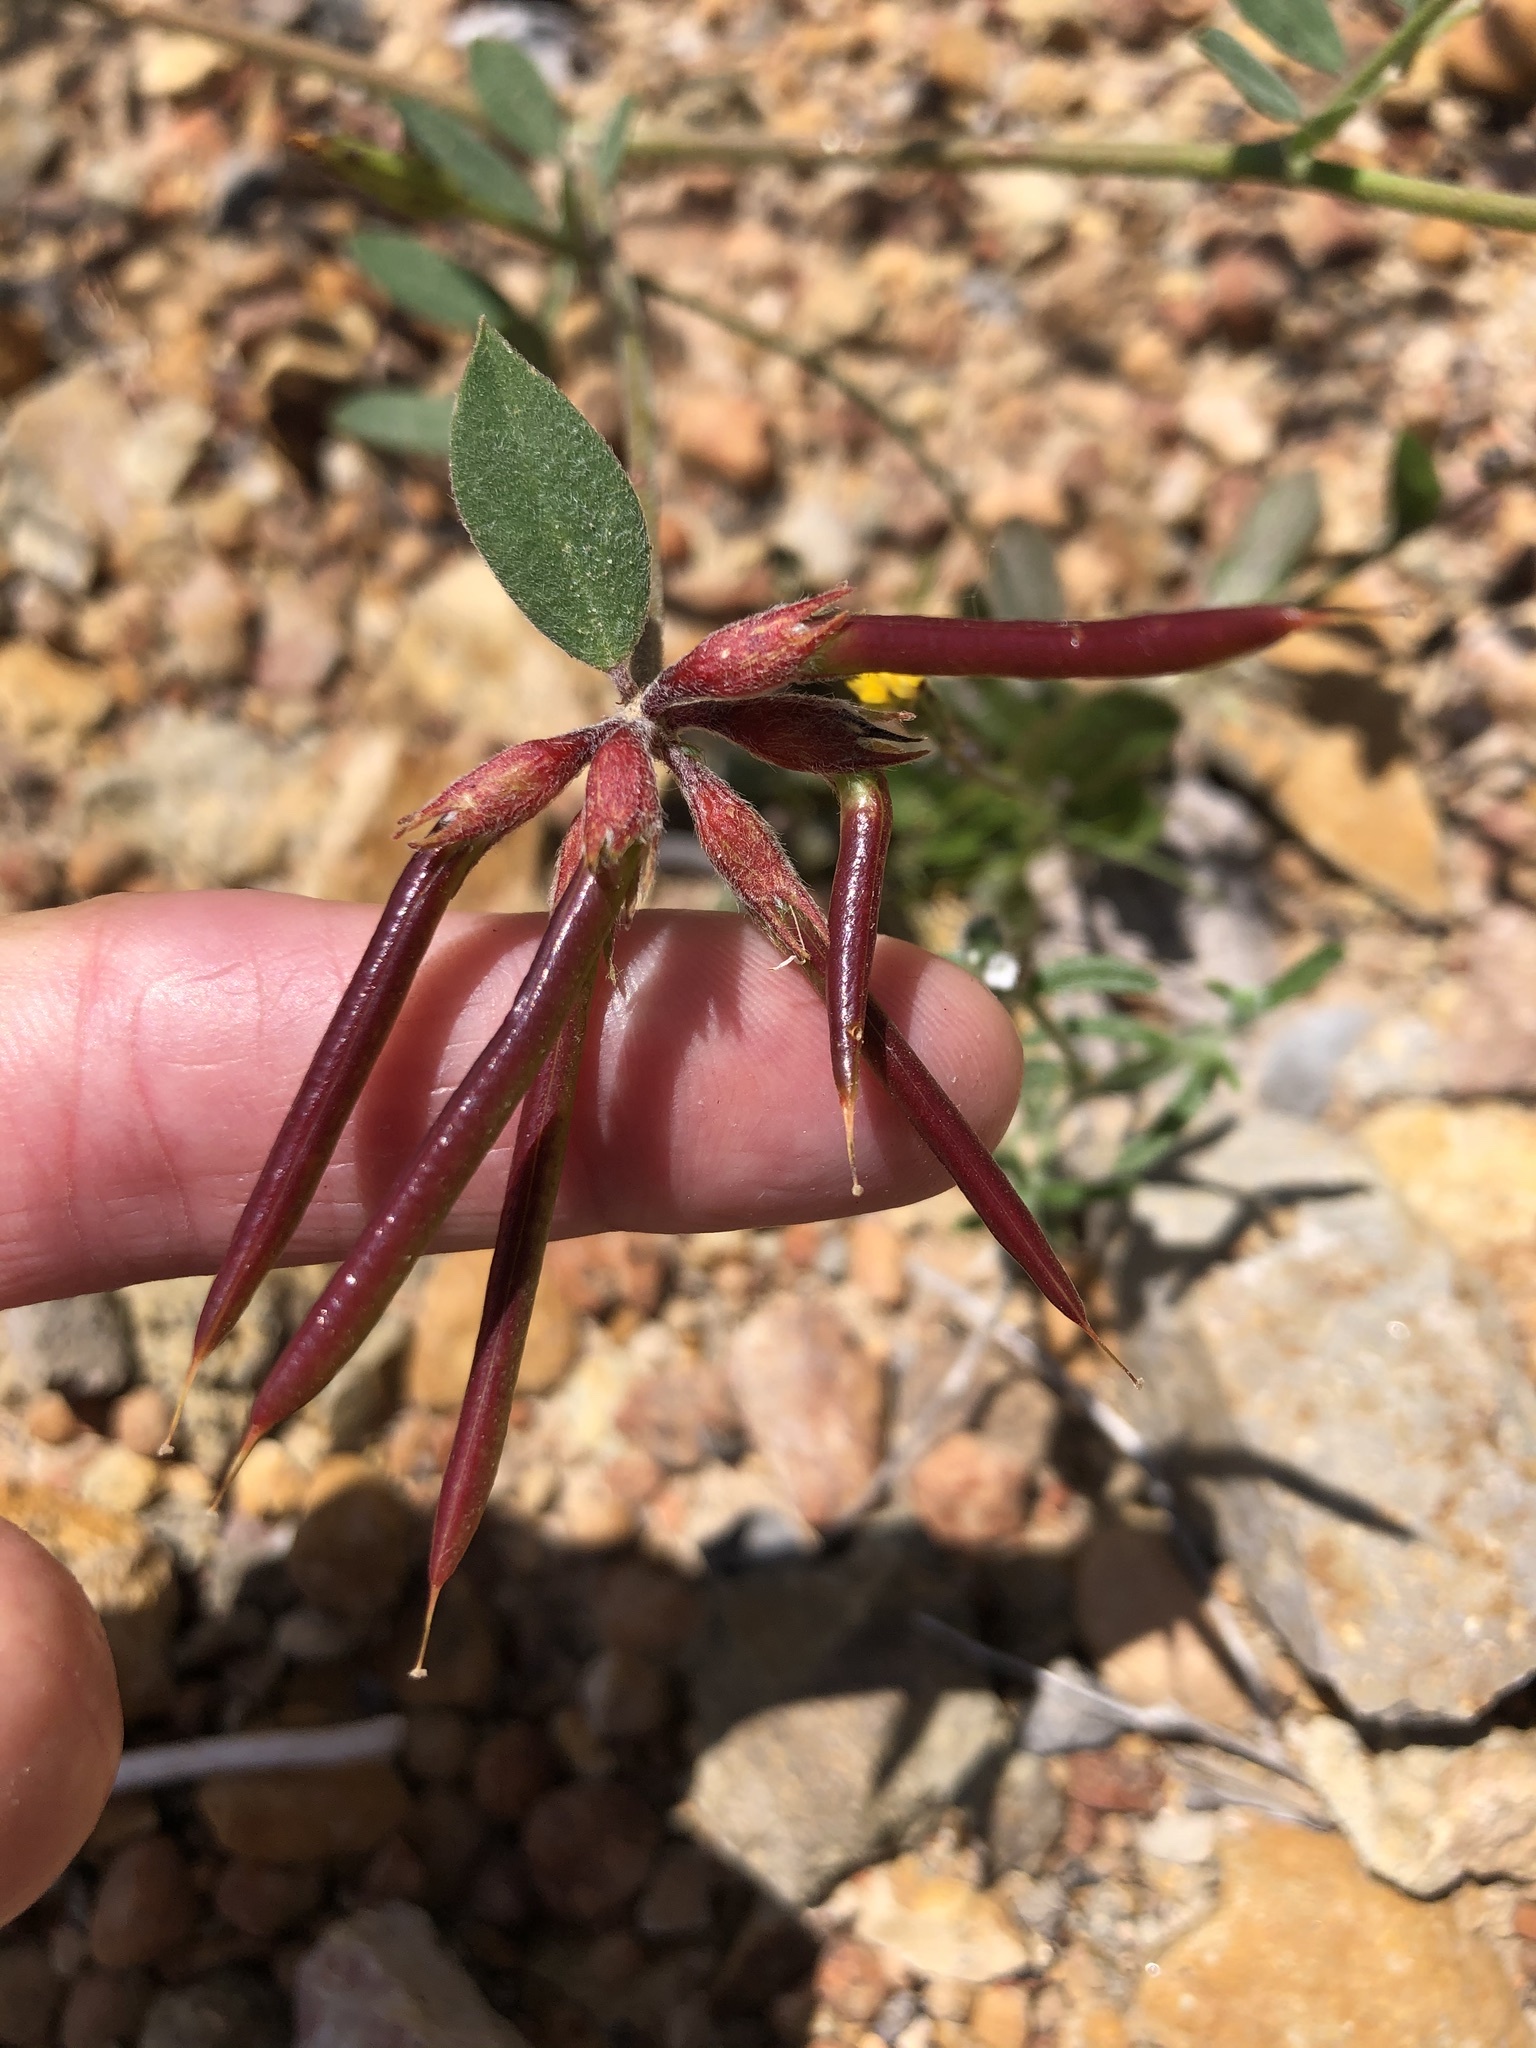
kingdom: Plantae
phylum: Tracheophyta
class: Magnoliopsida
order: Fabales
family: Fabaceae
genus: Acmispon
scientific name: Acmispon grandiflorus
